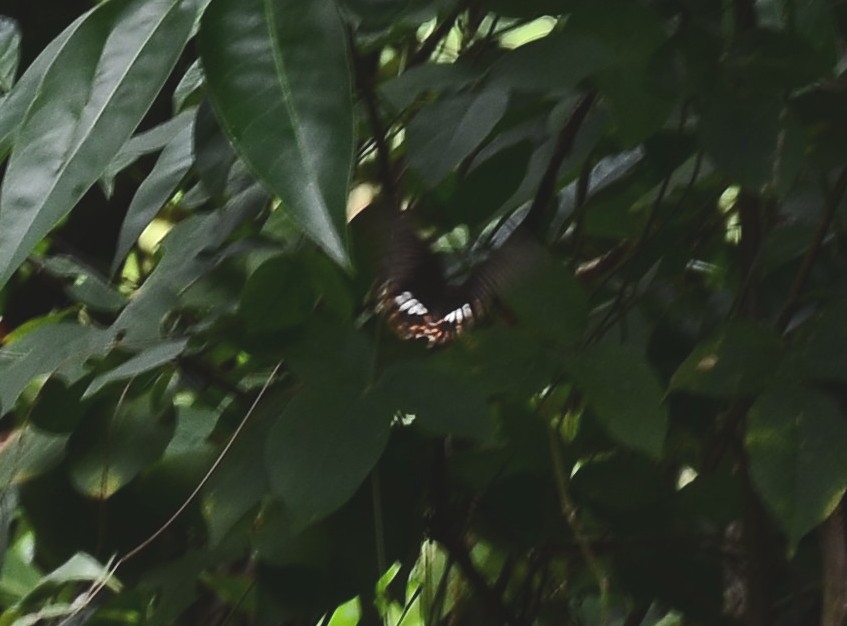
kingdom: Animalia
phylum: Arthropoda
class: Insecta
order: Lepidoptera
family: Papilionidae
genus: Papilio
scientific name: Papilio polytes
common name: Common mormon
